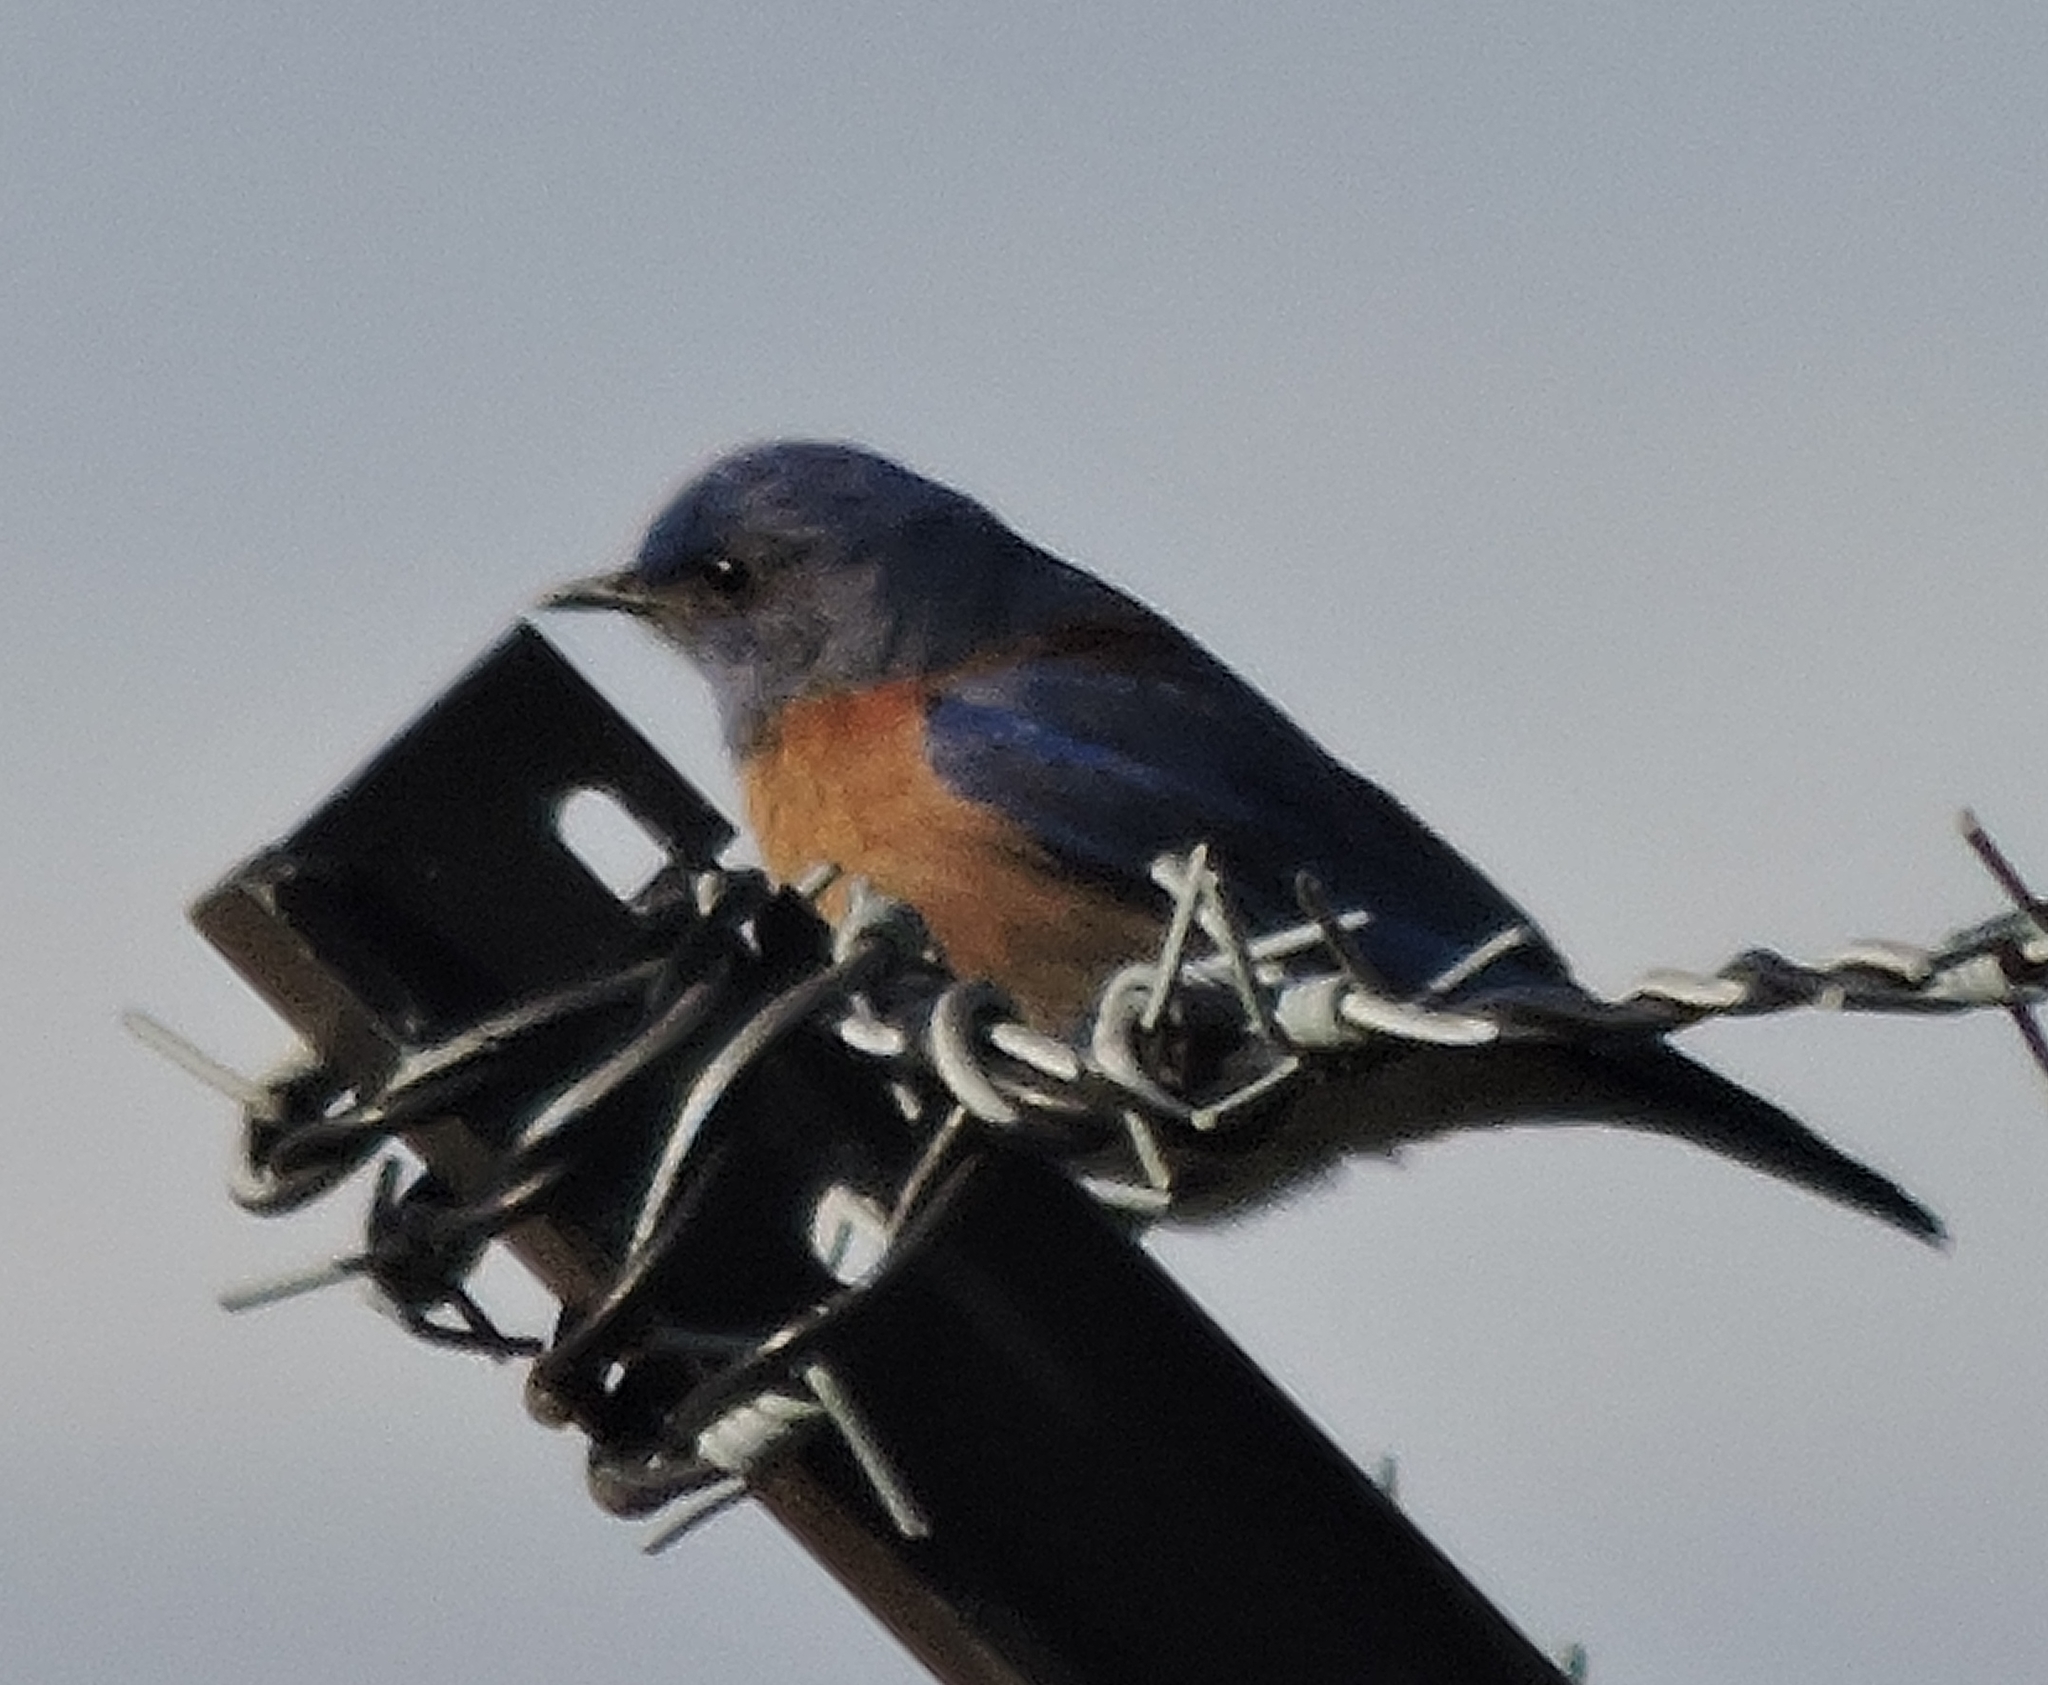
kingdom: Animalia
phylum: Chordata
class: Aves
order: Passeriformes
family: Turdidae
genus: Sialia
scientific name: Sialia mexicana
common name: Western bluebird
